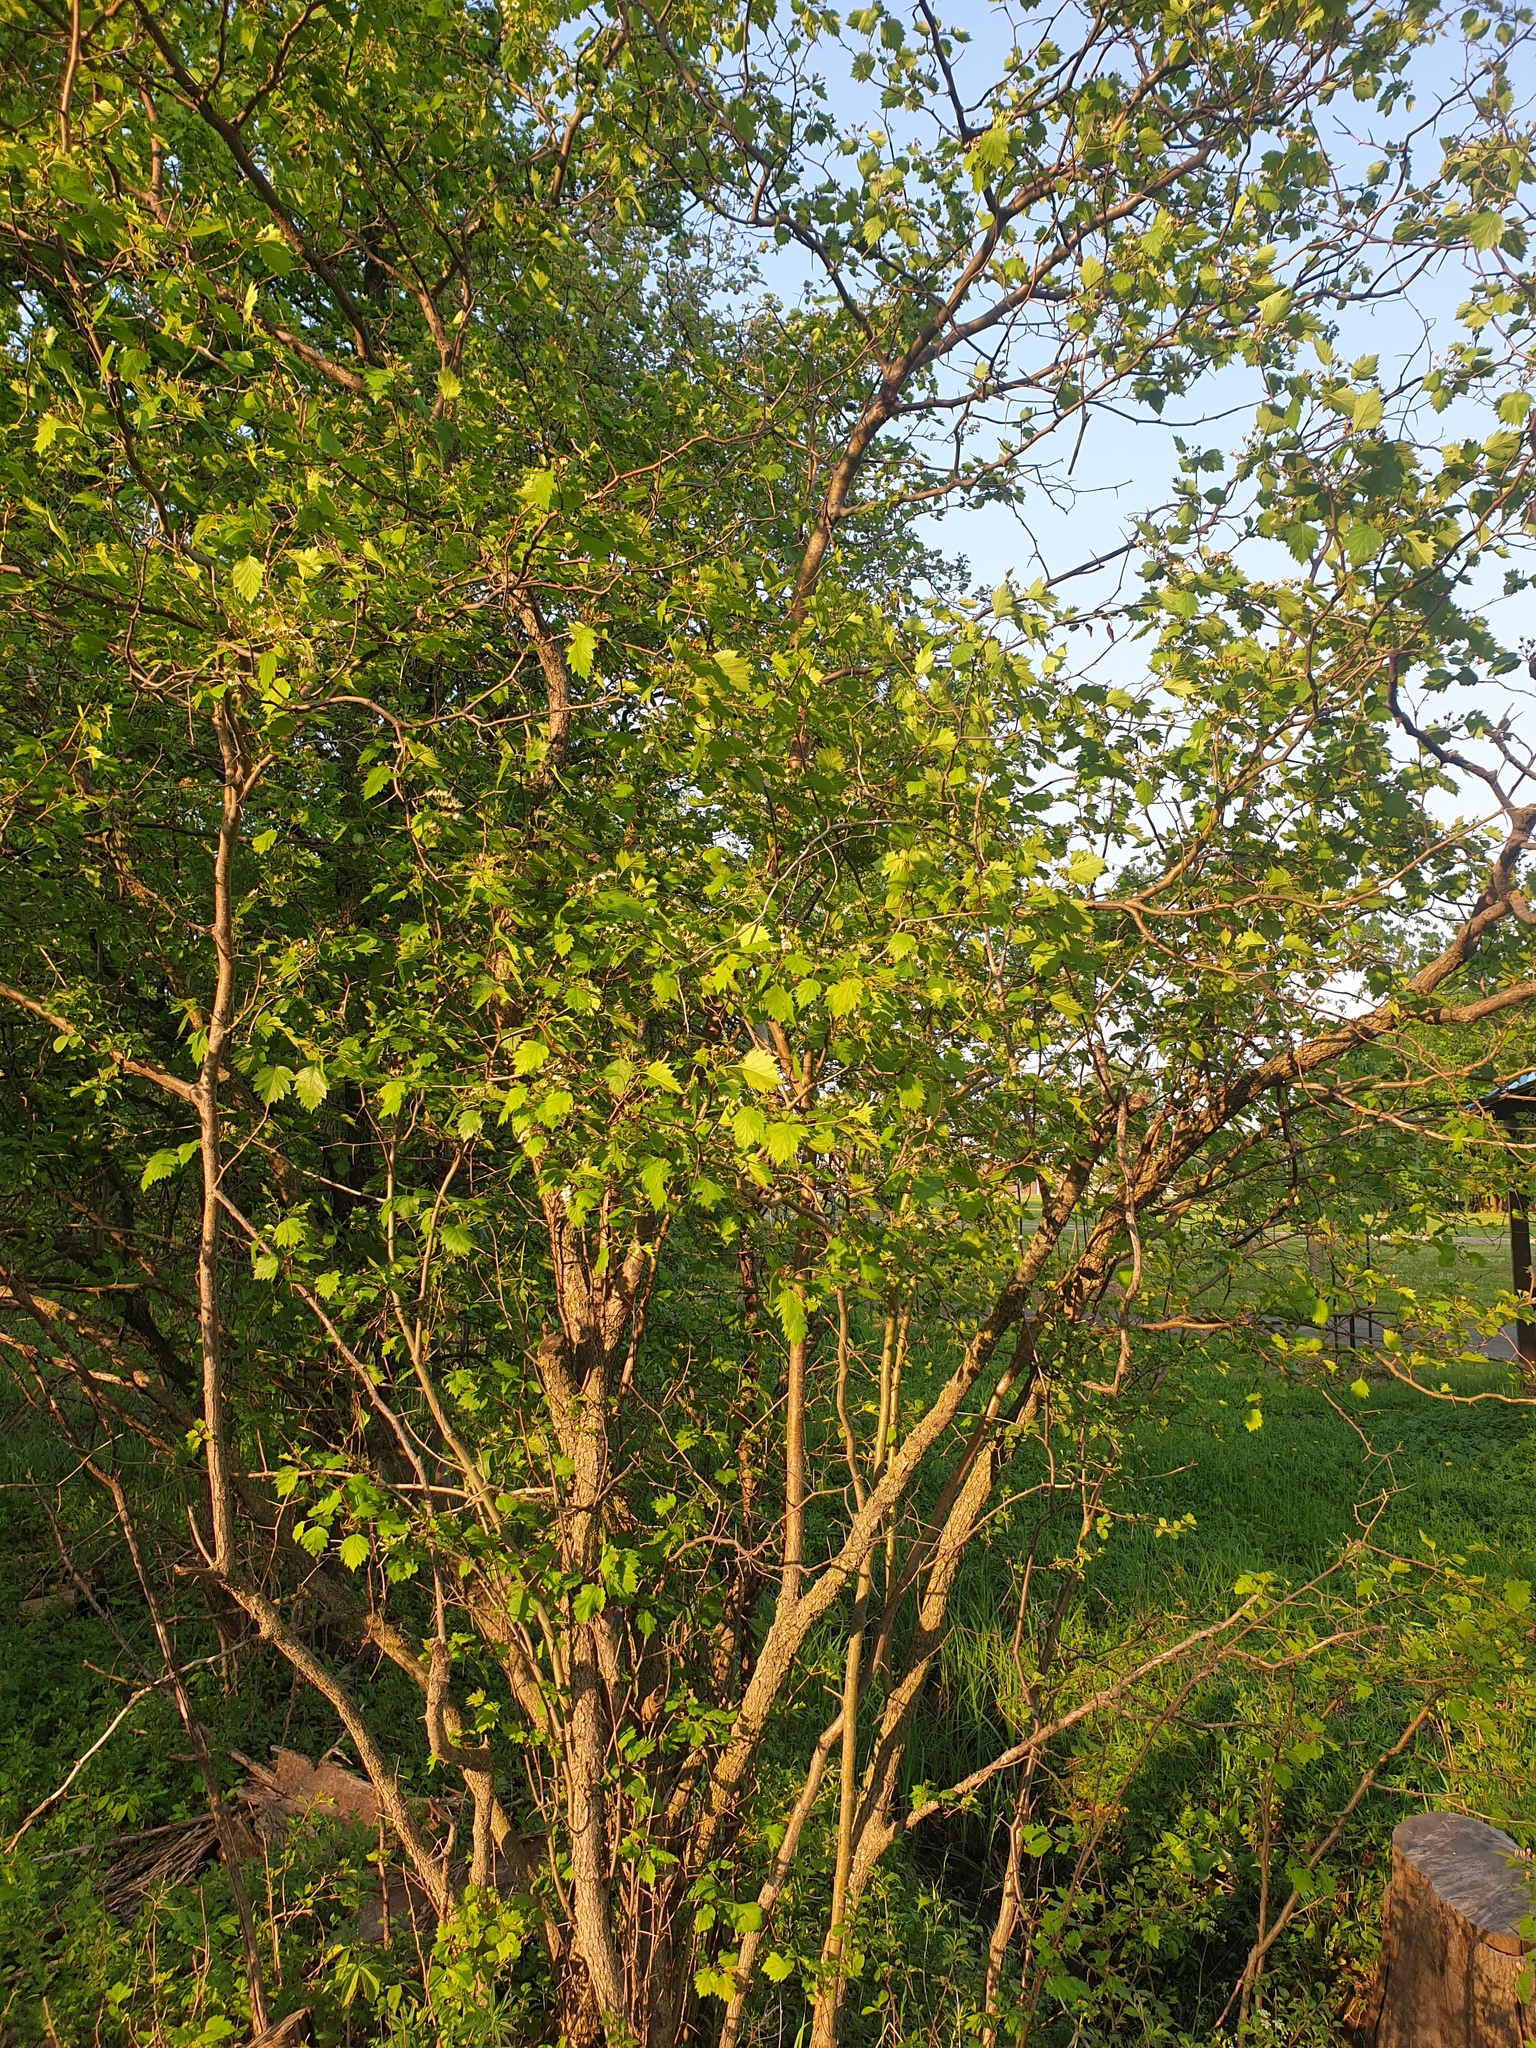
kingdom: Plantae
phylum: Tracheophyta
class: Magnoliopsida
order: Rosales
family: Rosaceae
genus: Crataegus
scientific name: Crataegus flabellata
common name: Bosc's hawthorn
